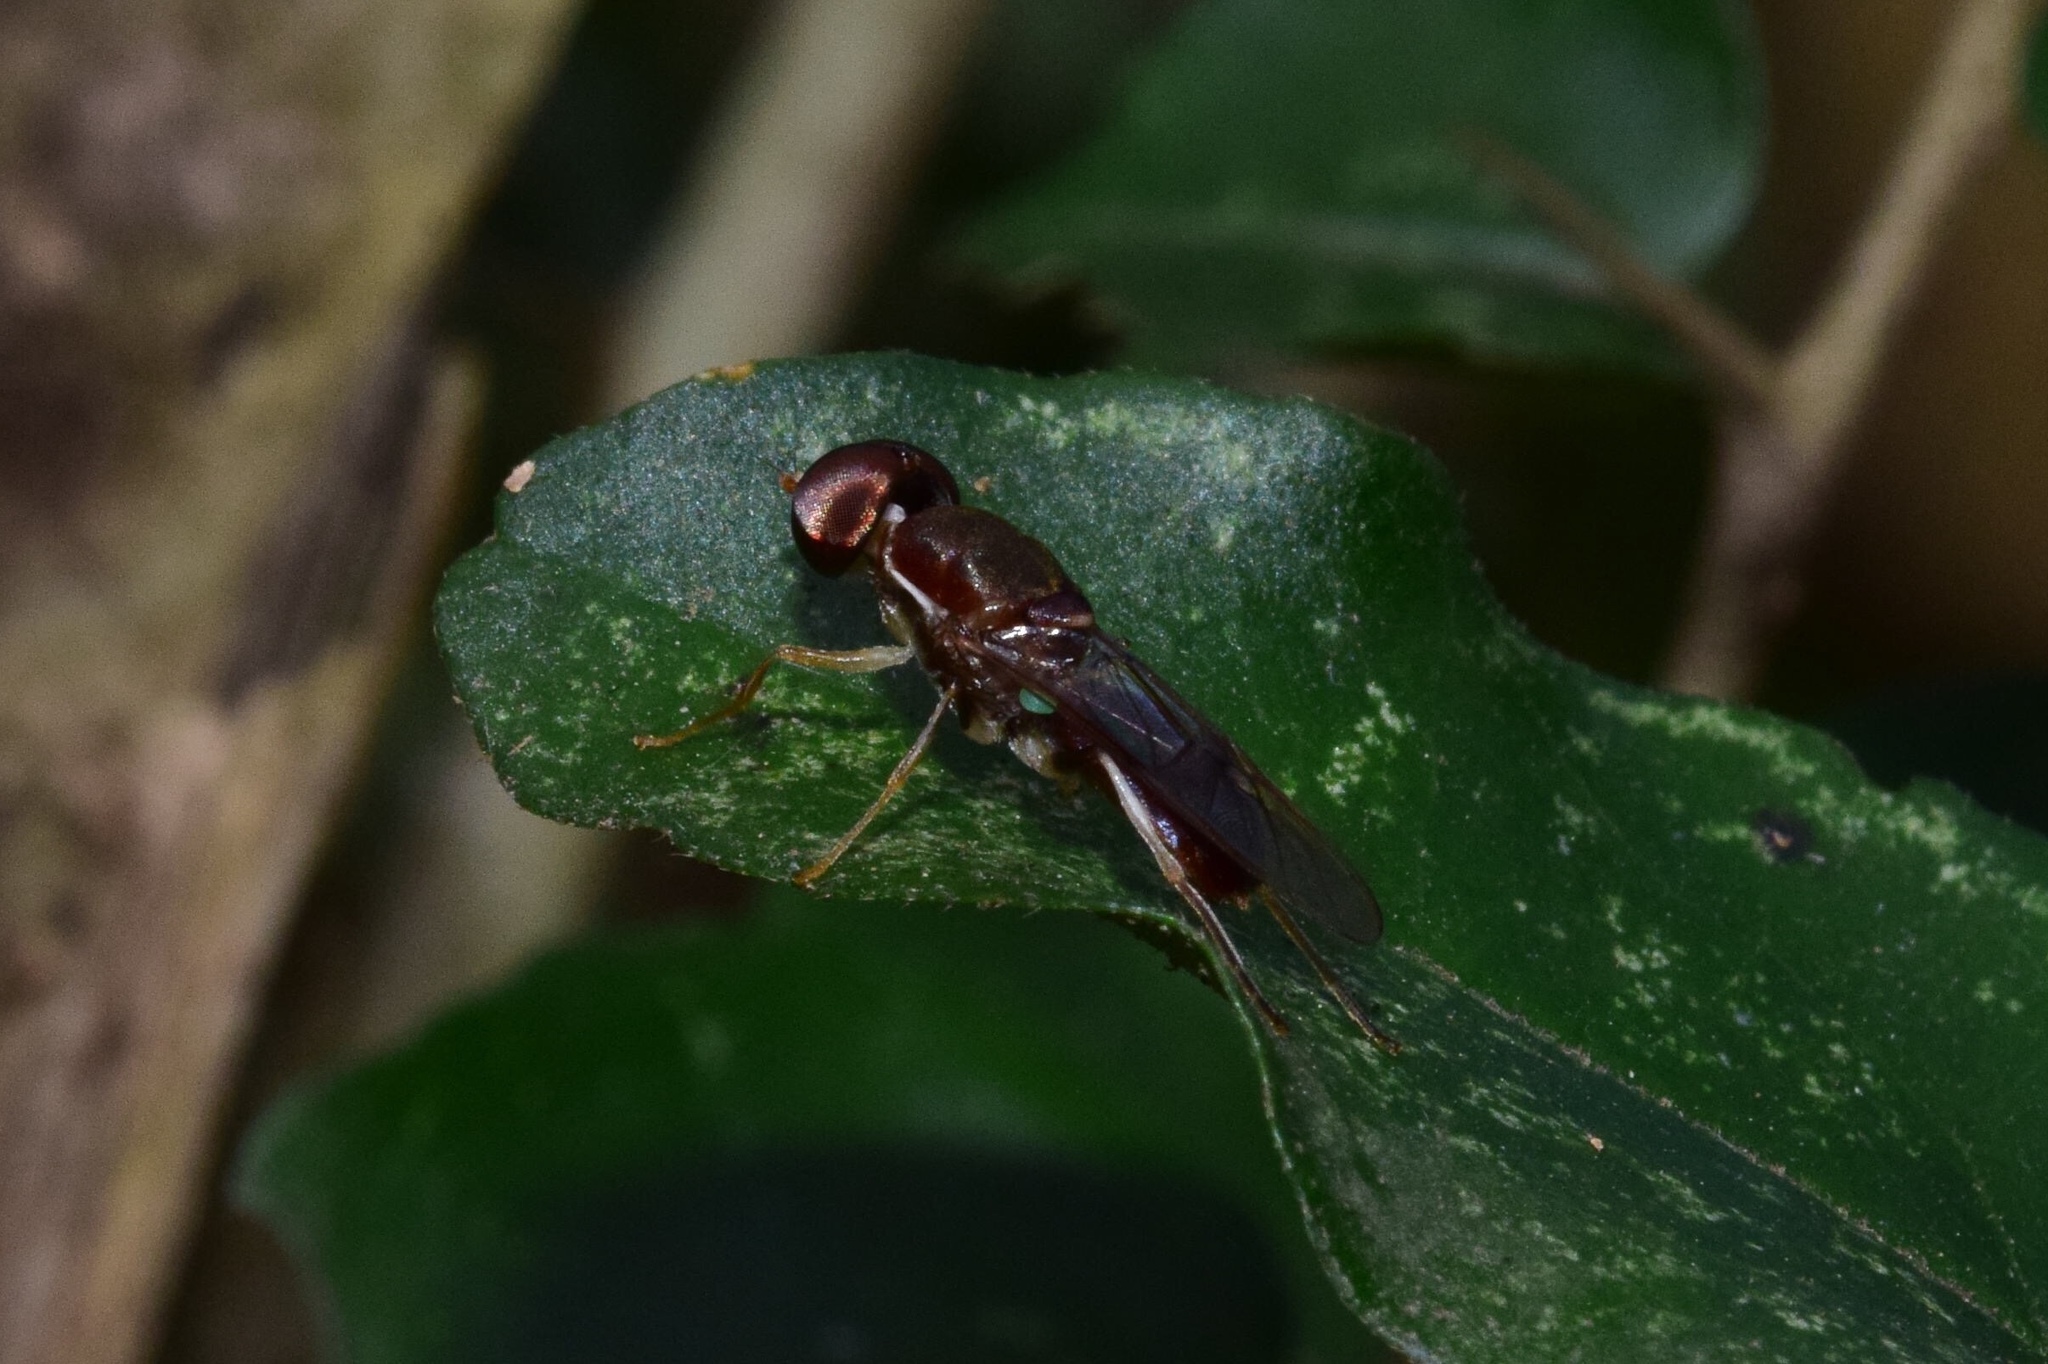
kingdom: Animalia
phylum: Arthropoda
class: Insecta
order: Diptera
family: Stratiomyidae
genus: Cephalochrysa
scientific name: Cephalochrysa calopa
